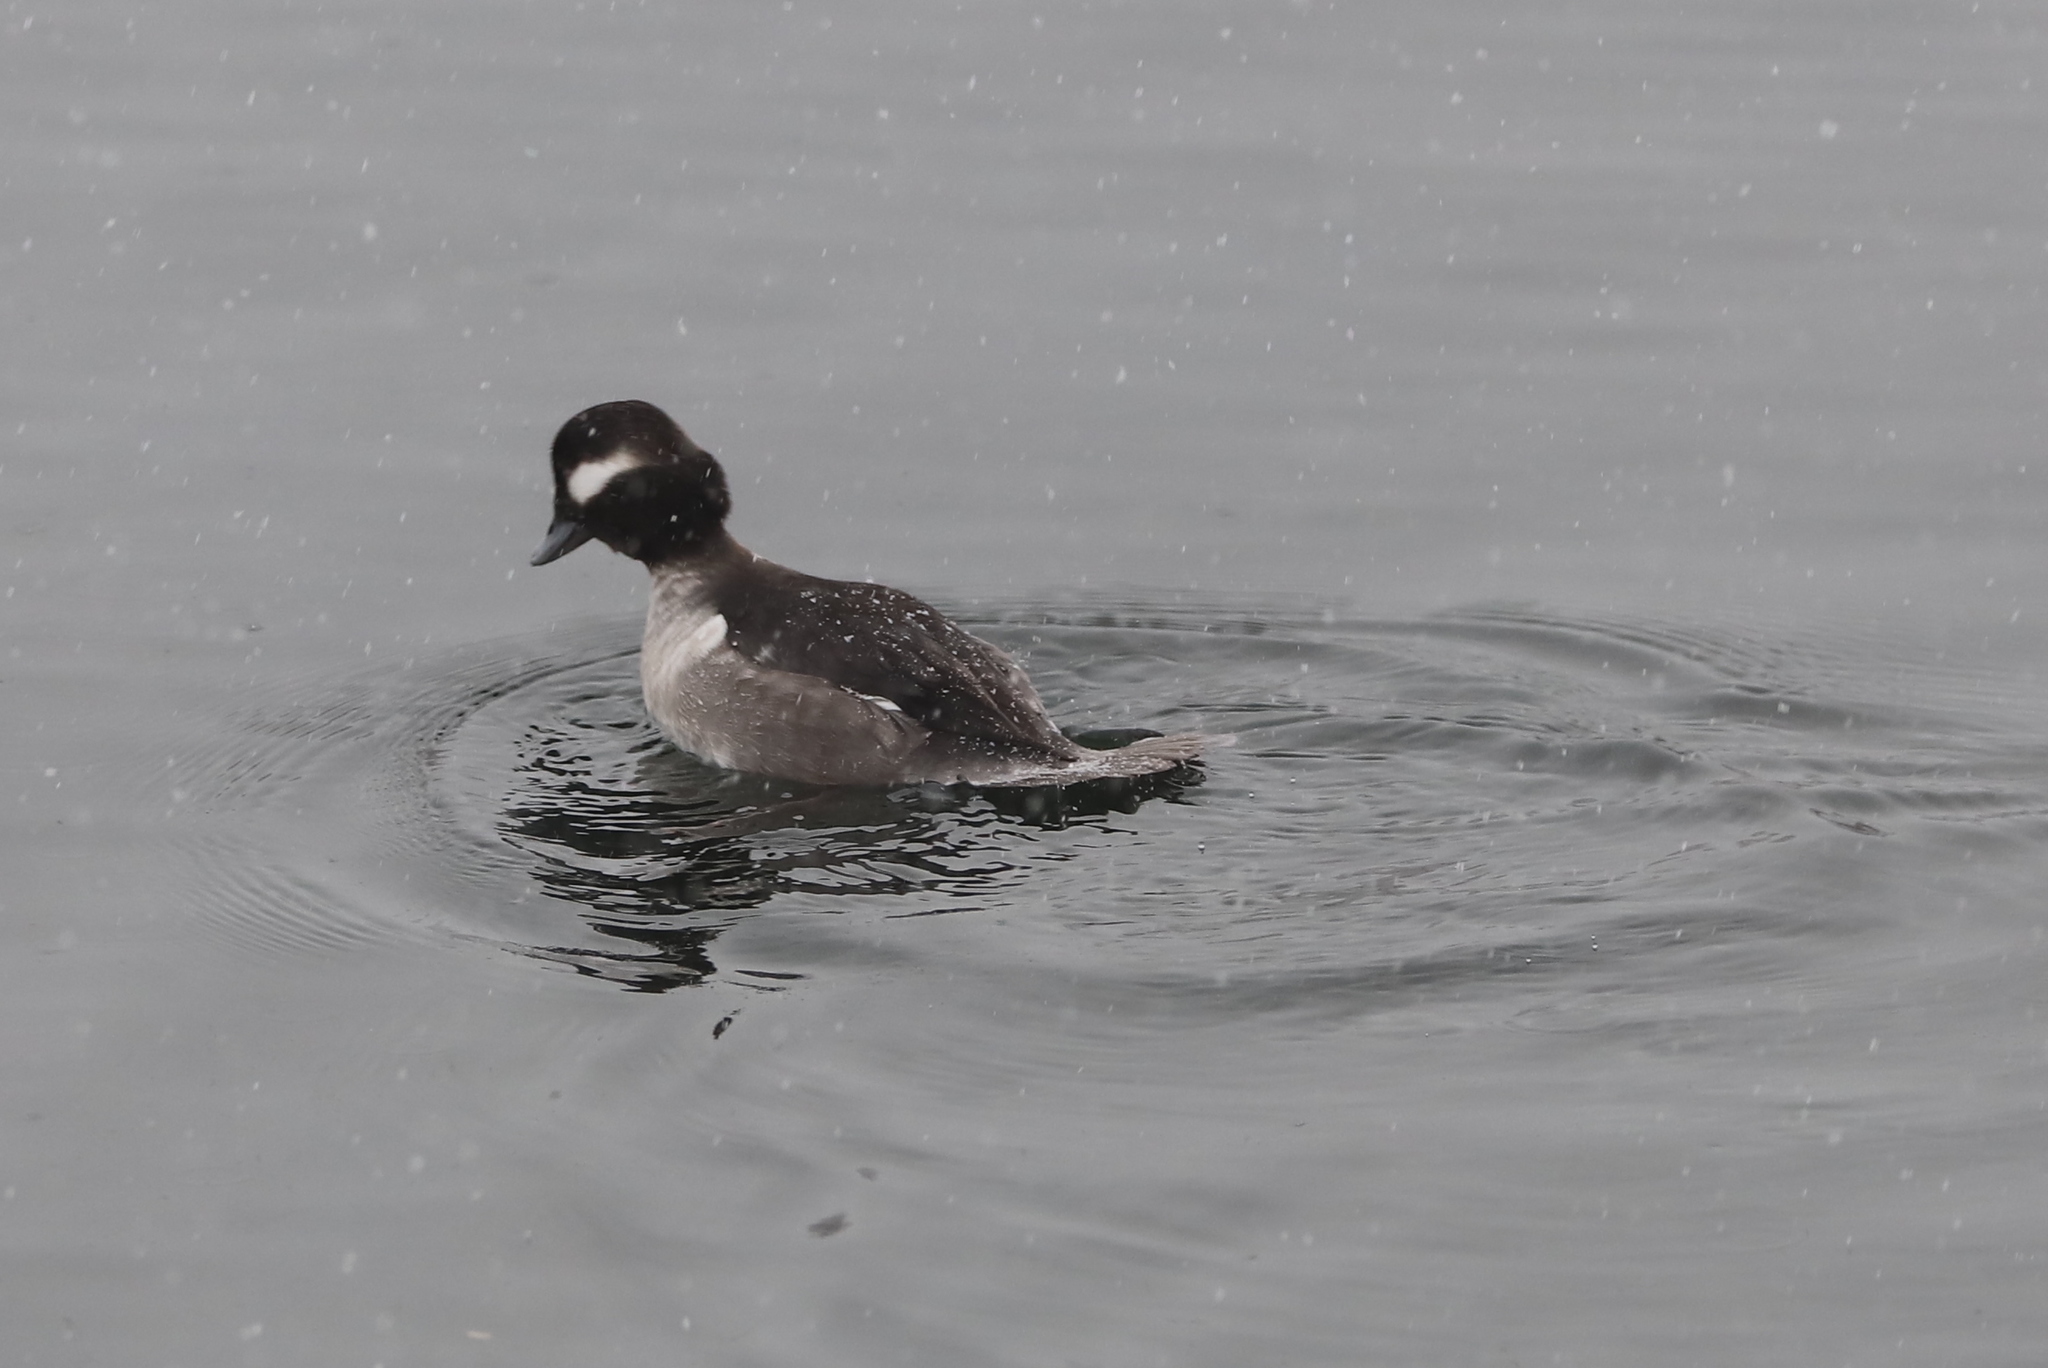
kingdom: Animalia
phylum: Chordata
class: Aves
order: Anseriformes
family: Anatidae
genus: Bucephala
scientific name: Bucephala albeola
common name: Bufflehead
